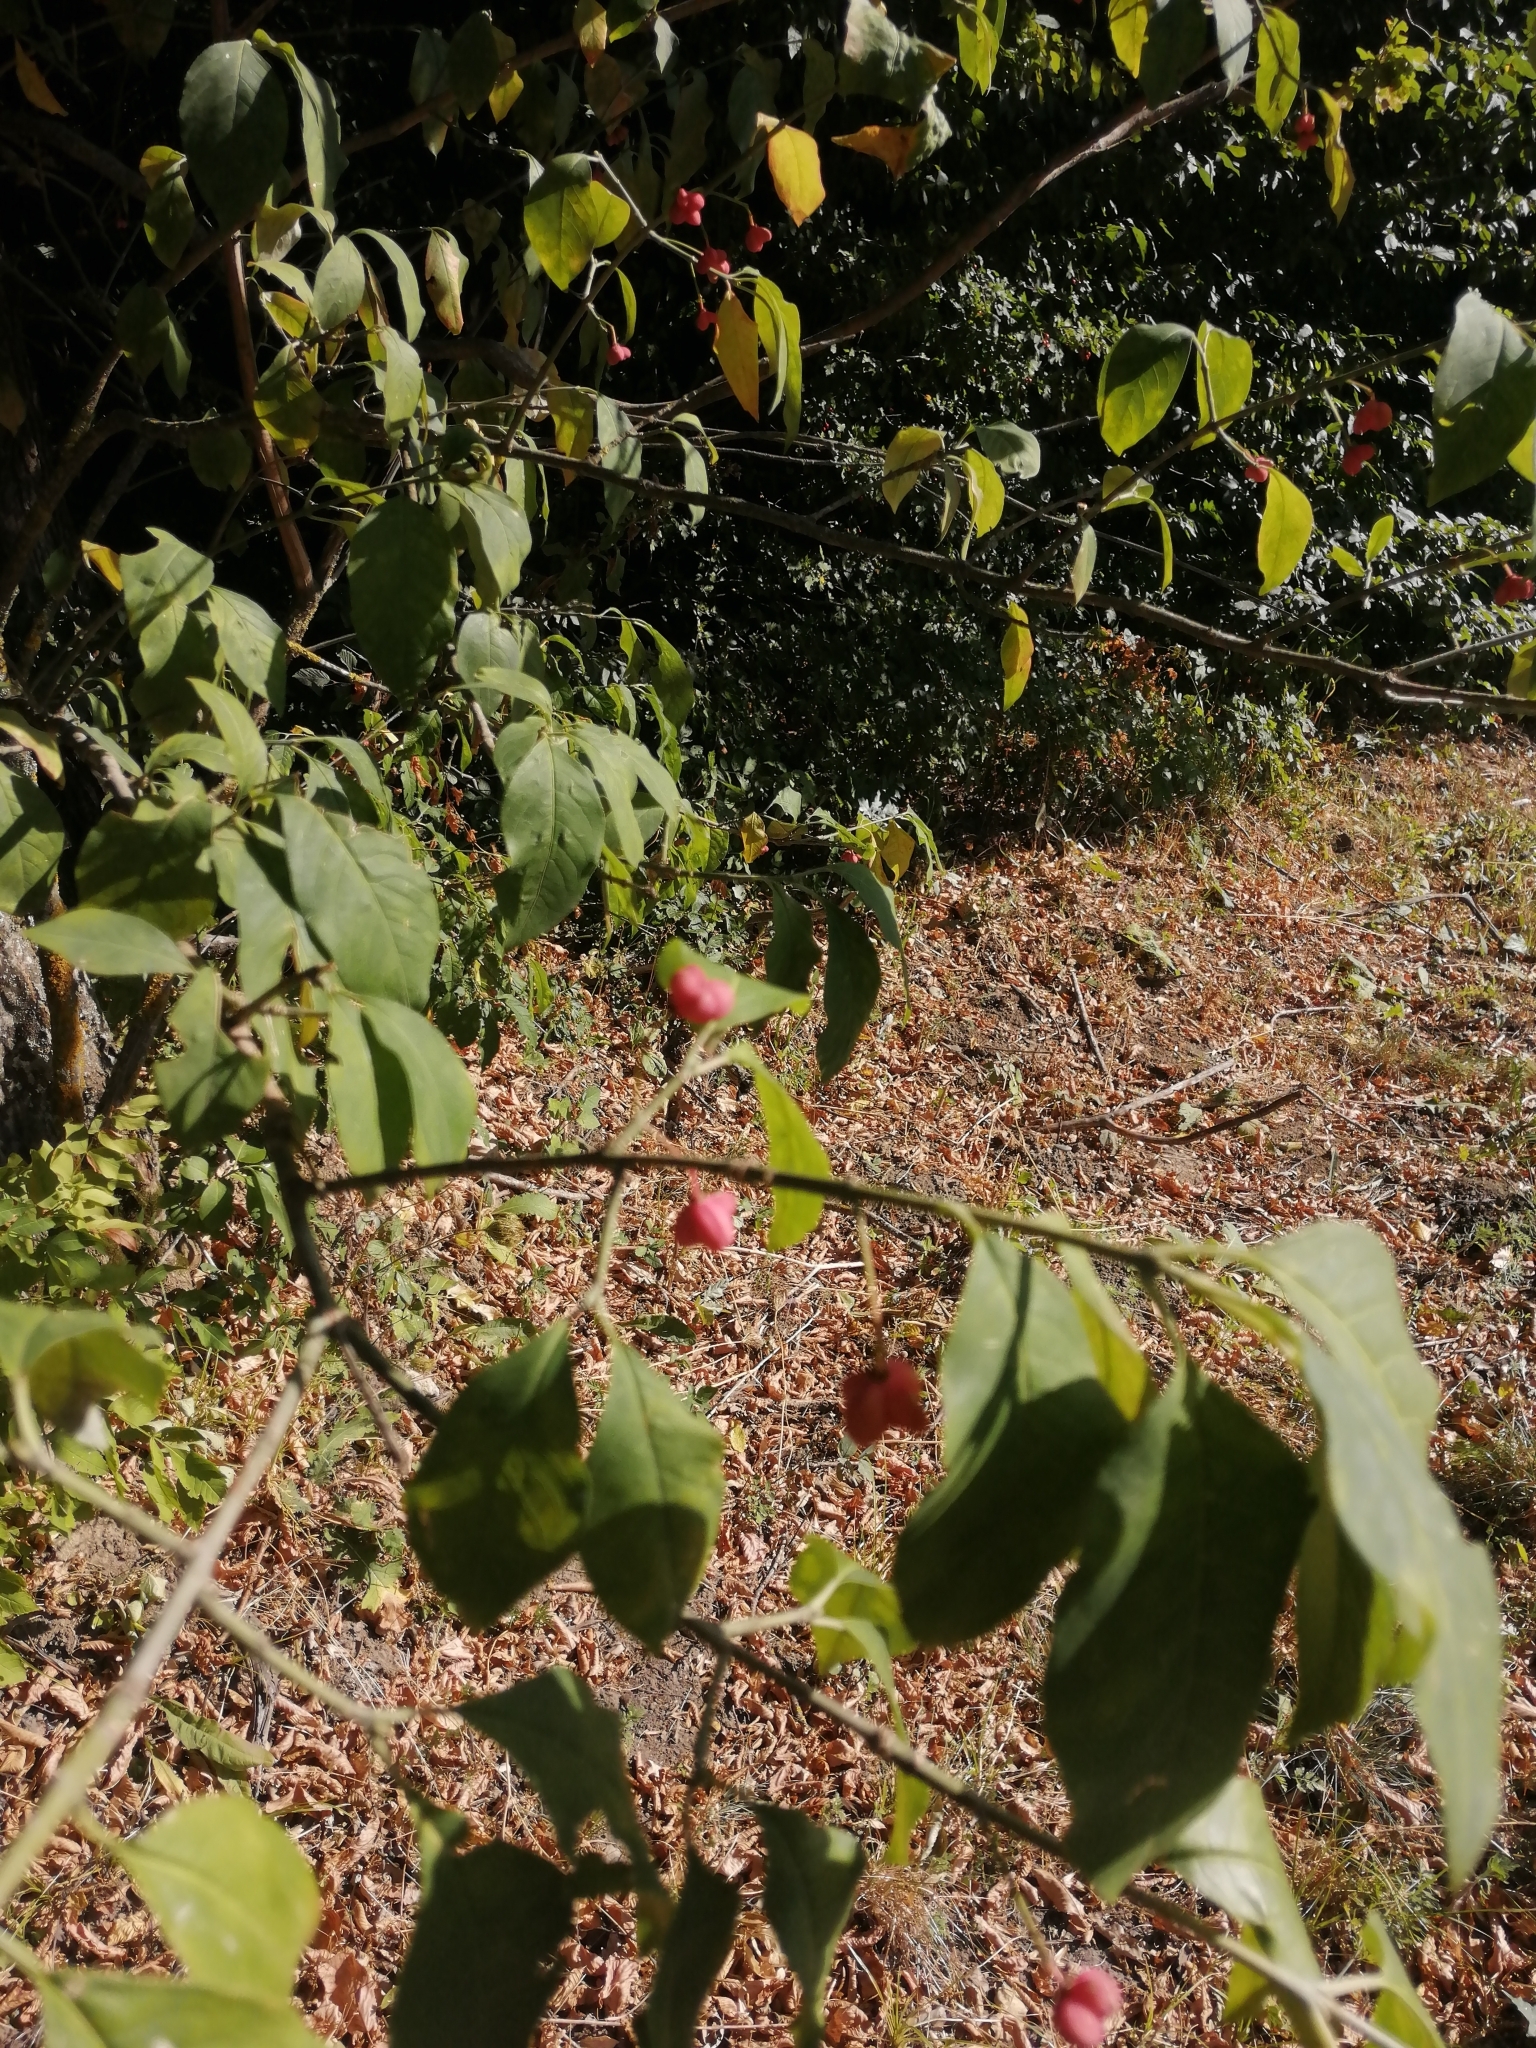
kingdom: Plantae
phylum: Tracheophyta
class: Magnoliopsida
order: Celastrales
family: Celastraceae
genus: Euonymus
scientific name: Euonymus europaeus
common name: Spindle
